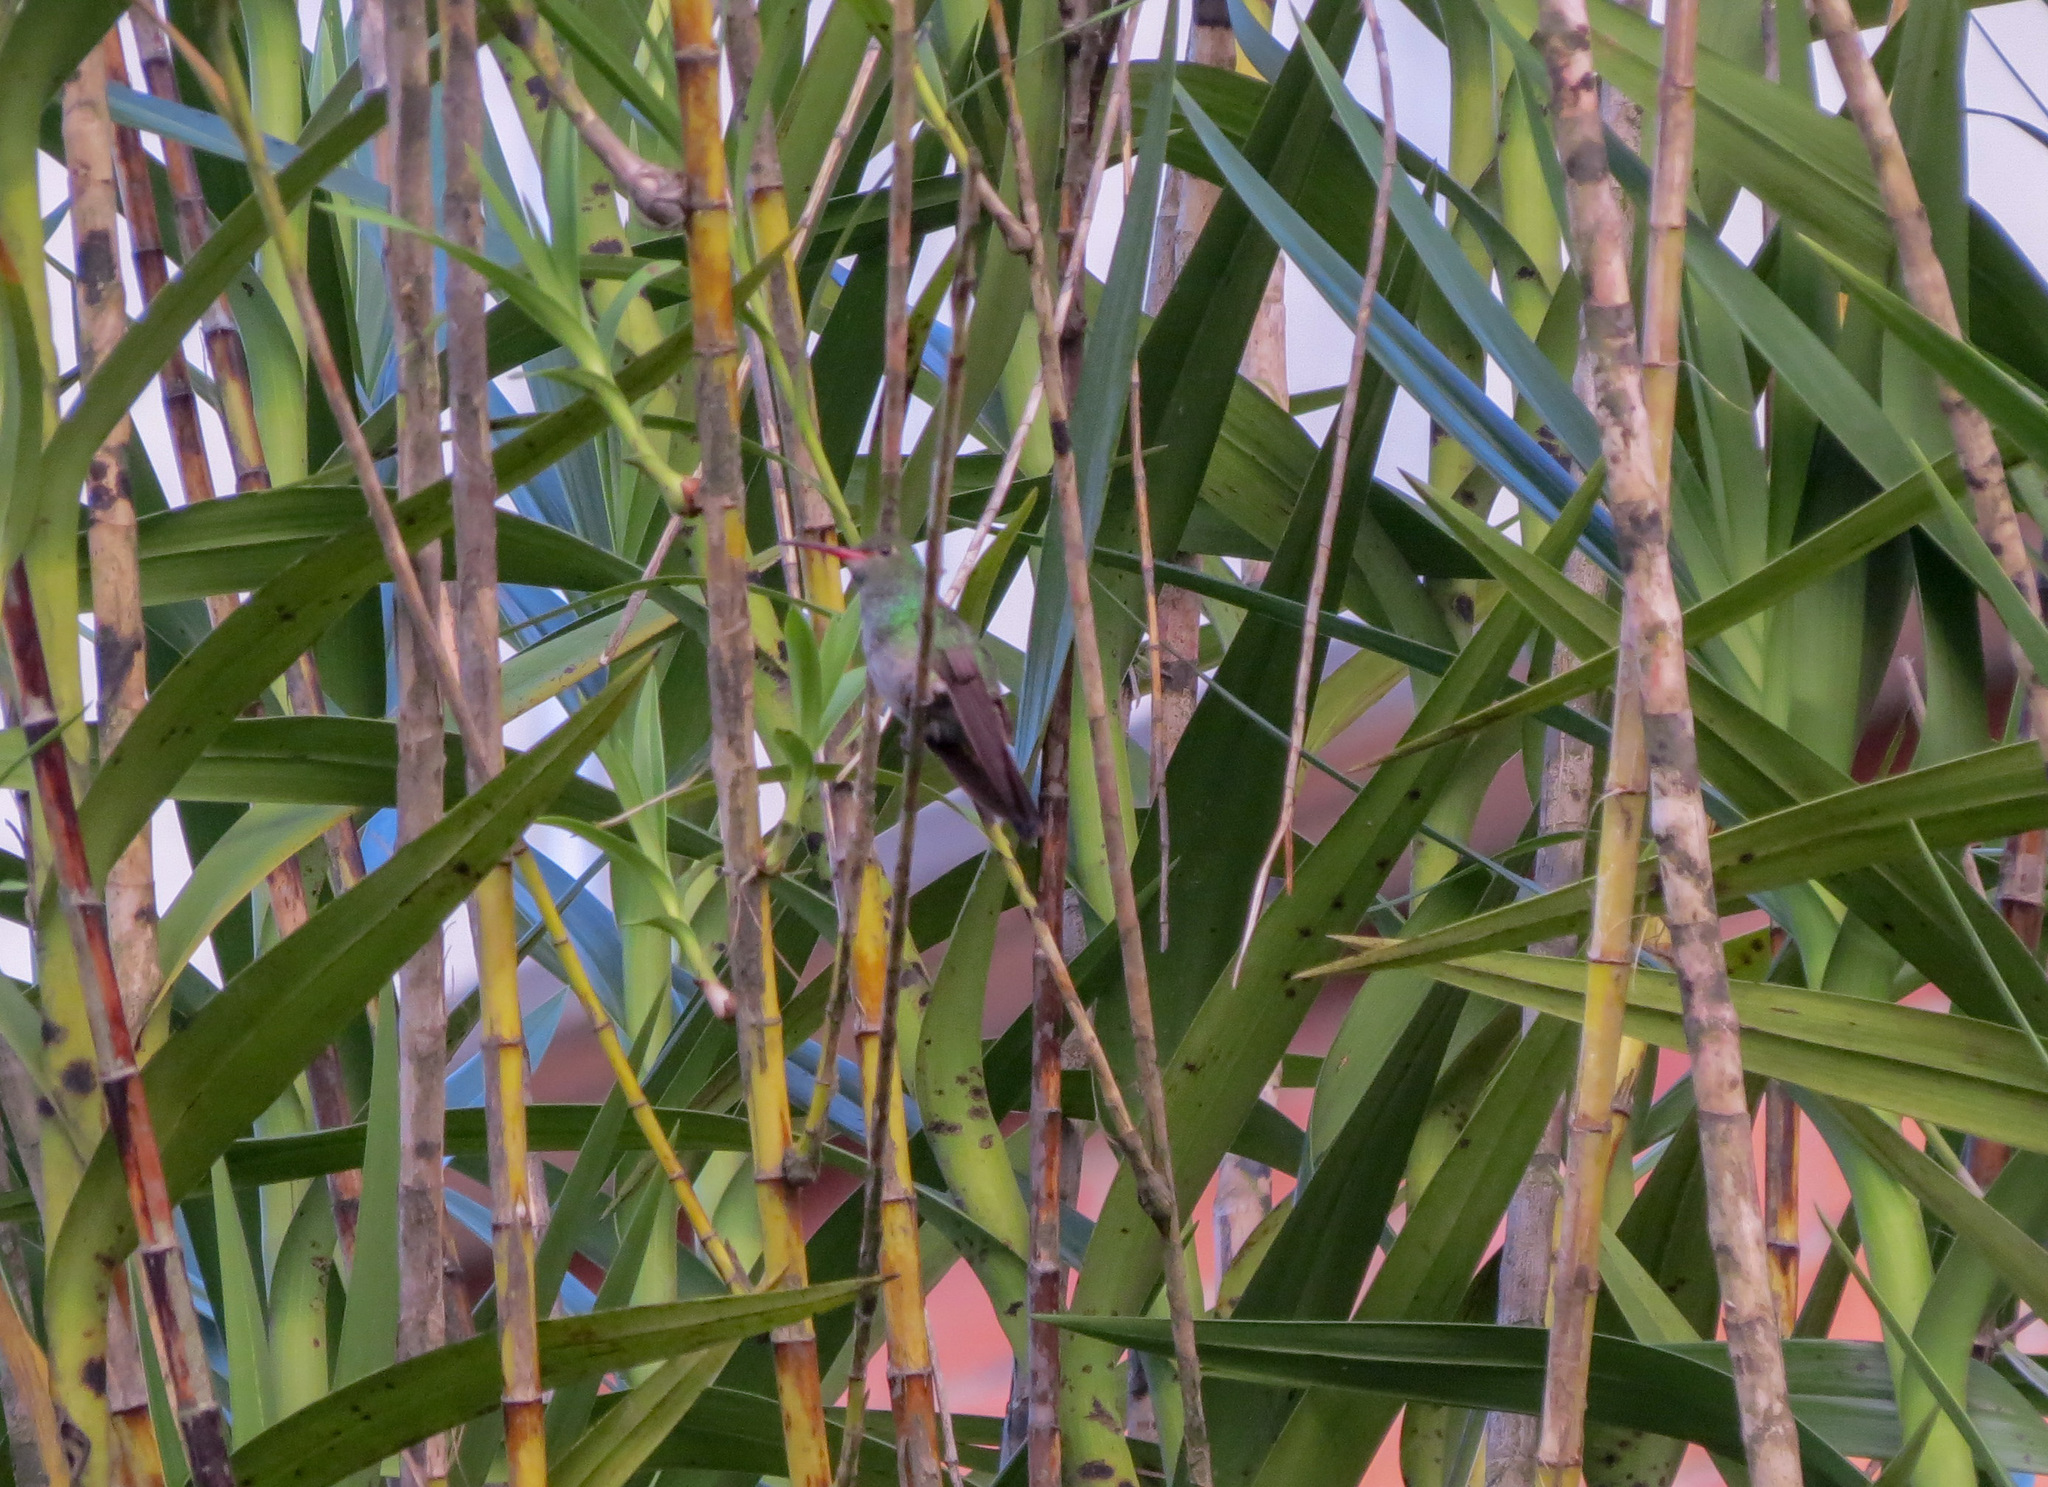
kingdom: Animalia
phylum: Chordata
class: Aves
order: Apodiformes
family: Trochilidae
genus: Amazilia
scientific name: Amazilia tzacatl
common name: Rufous-tailed hummingbird
